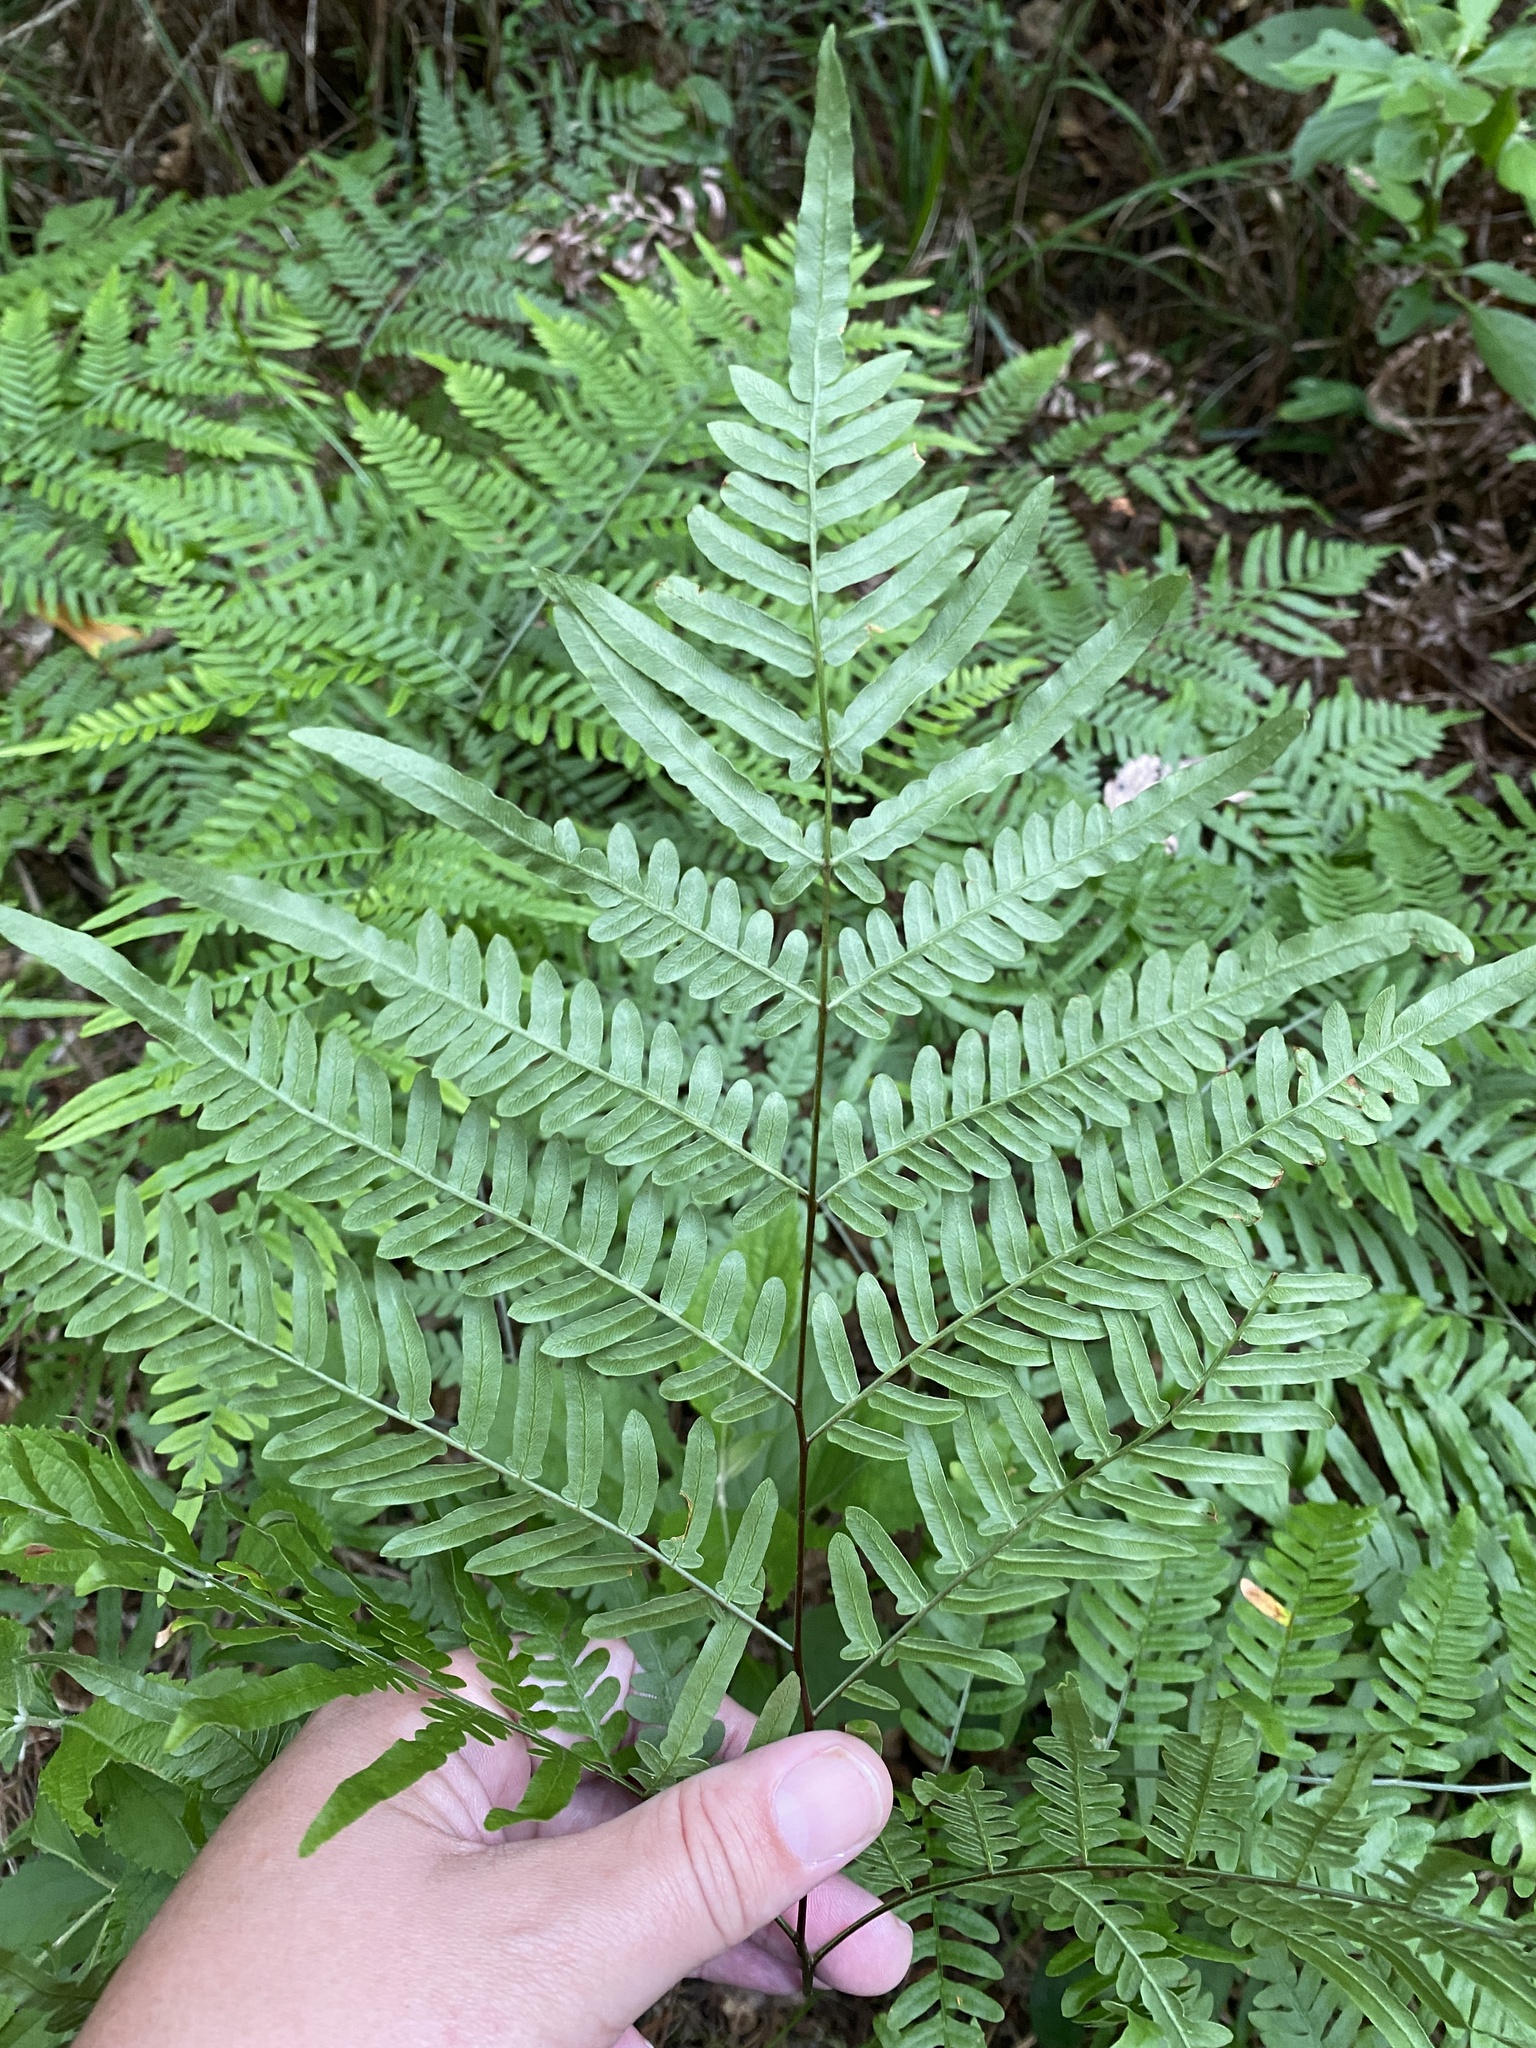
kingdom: Plantae
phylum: Tracheophyta
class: Polypodiopsida
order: Polypodiales
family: Dennstaedtiaceae
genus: Pteridium
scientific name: Pteridium
